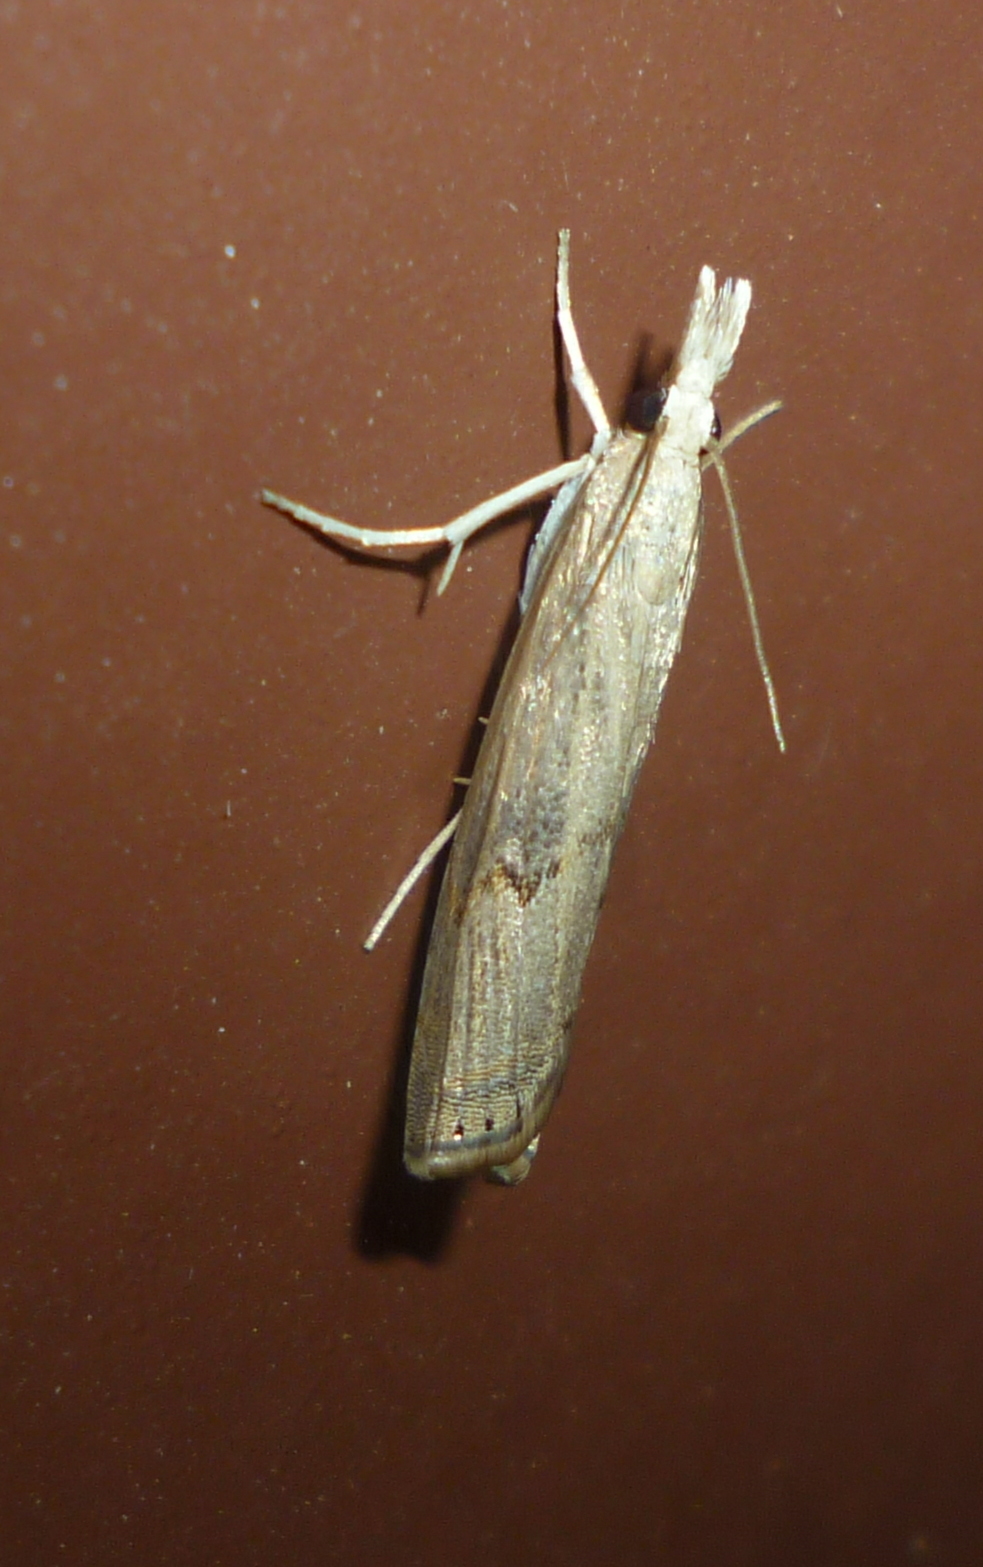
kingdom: Animalia
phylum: Arthropoda
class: Insecta
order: Lepidoptera
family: Crambidae
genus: Parapediasia
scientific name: Parapediasia teterellus
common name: Bluegrass webworm moth
